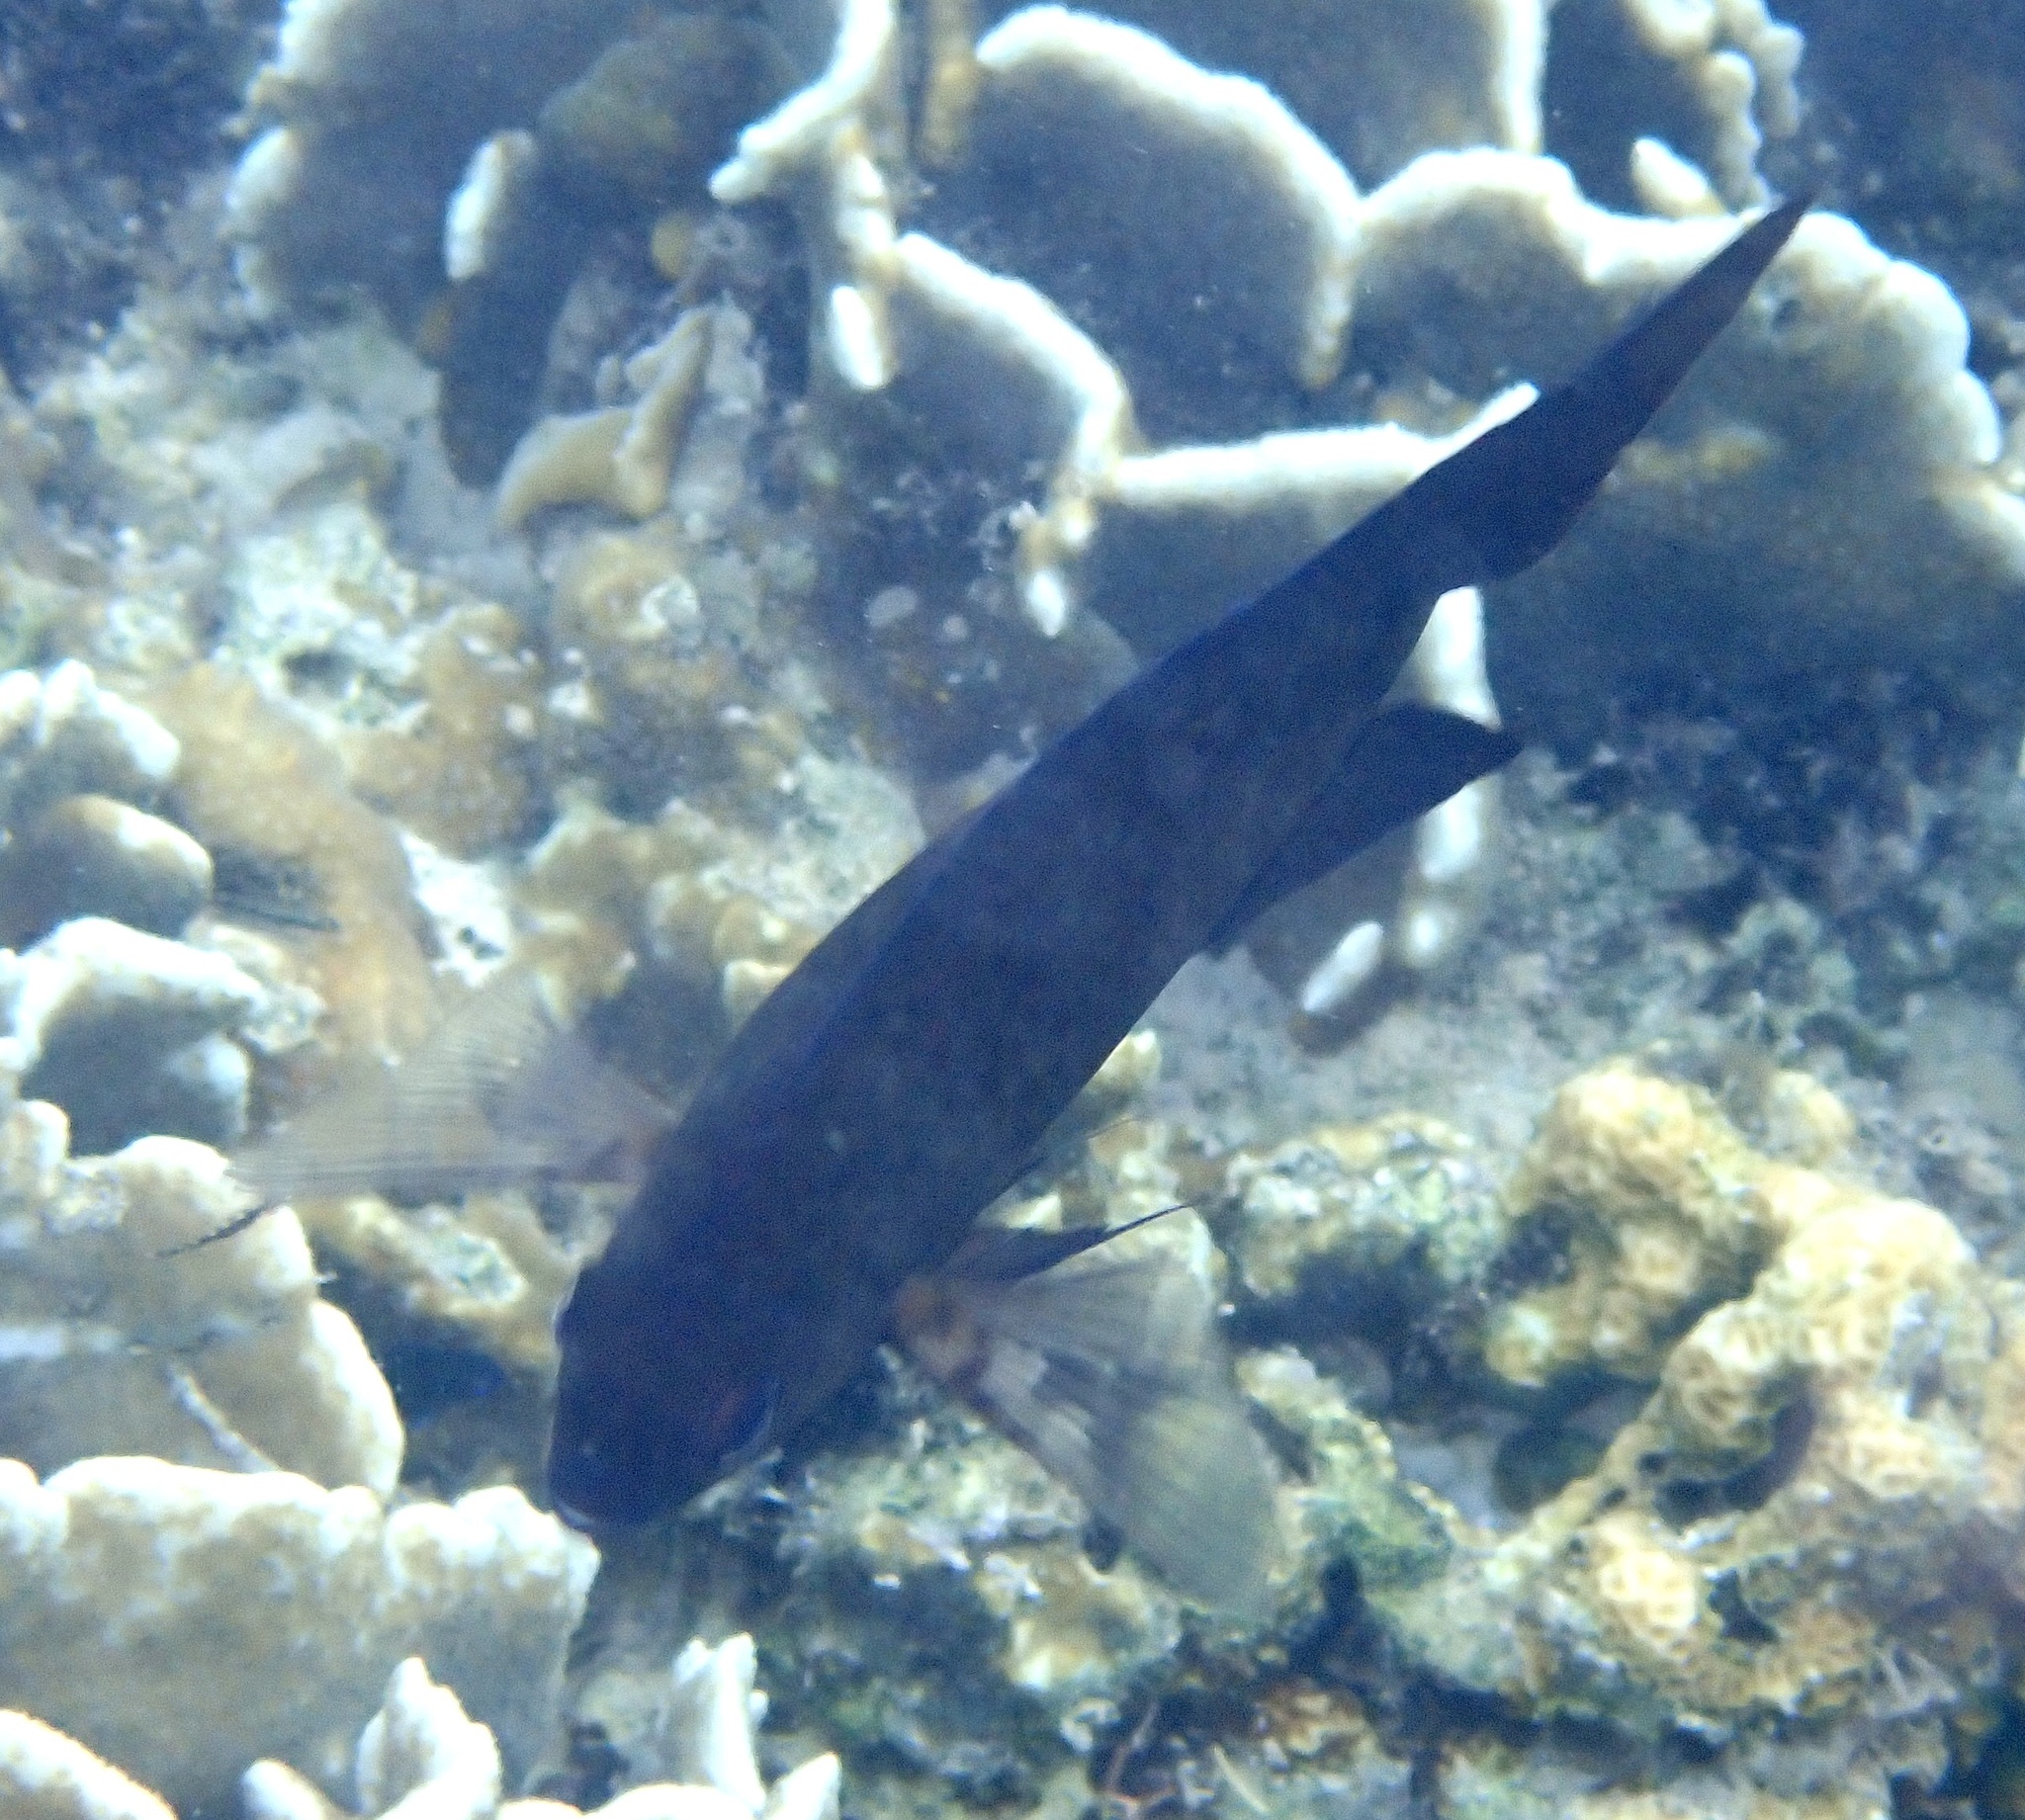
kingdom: Animalia
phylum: Chordata
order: Perciformes
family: Pomacentridae
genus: Acanthochromis
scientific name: Acanthochromis polyacanthus
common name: Spiny chromis
